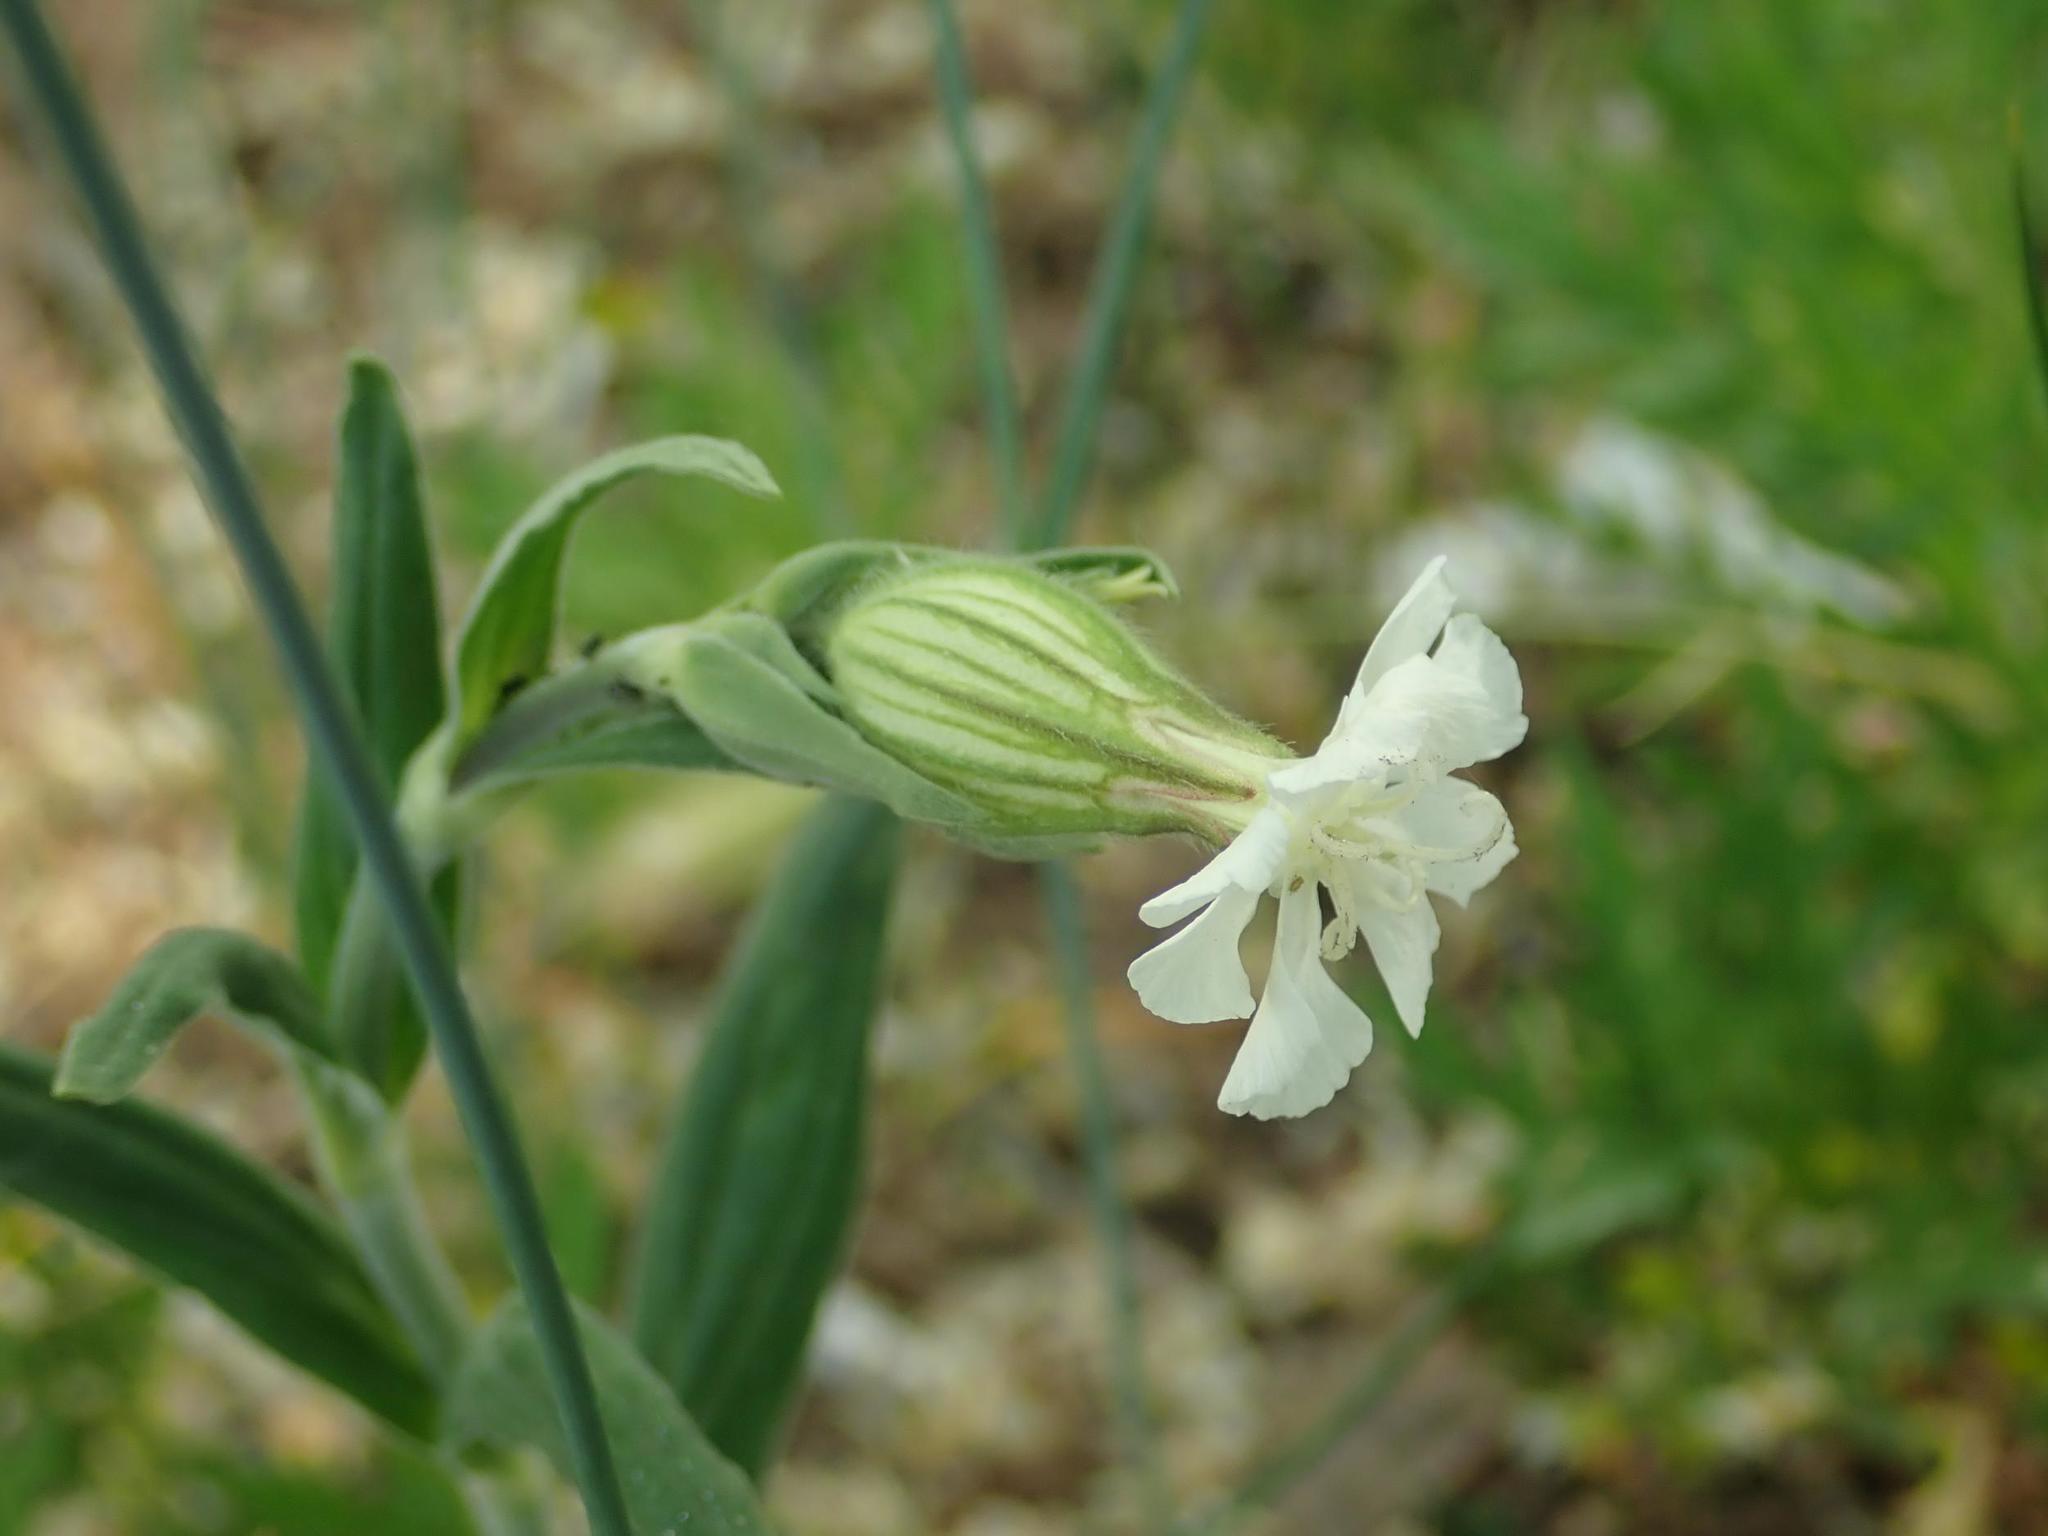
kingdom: Plantae
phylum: Tracheophyta
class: Magnoliopsida
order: Caryophyllales
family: Caryophyllaceae
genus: Silene
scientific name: Silene latifolia
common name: White campion
